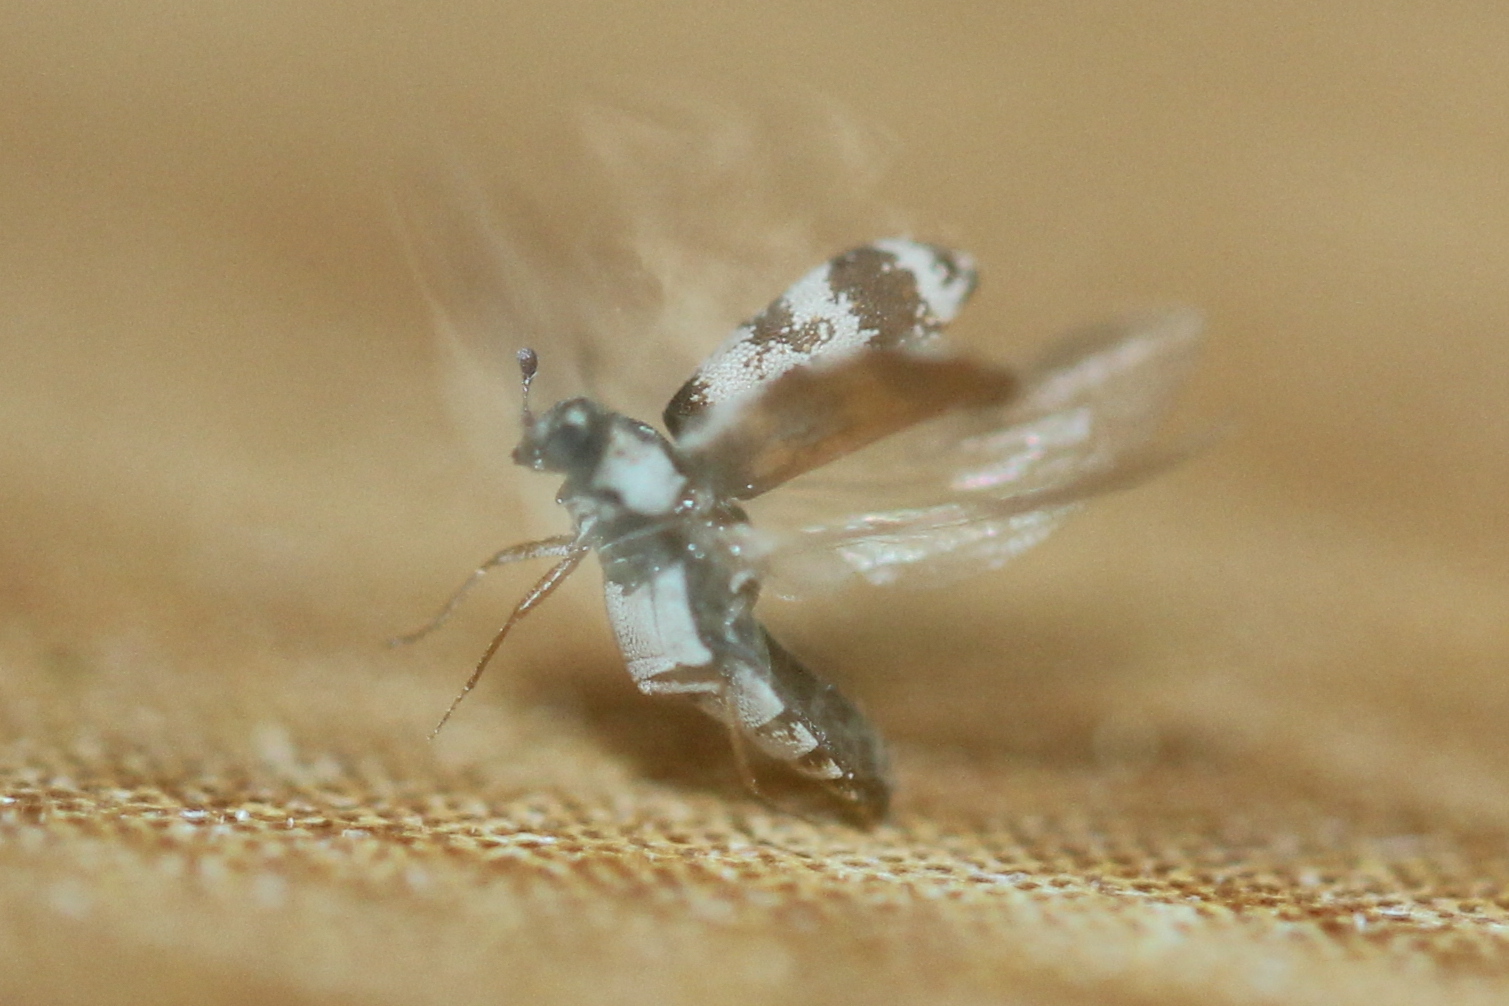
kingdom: Animalia
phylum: Arthropoda
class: Insecta
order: Coleoptera
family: Dermestidae
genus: Anthrenus
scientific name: Anthrenus coloratus
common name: Auger beetle
